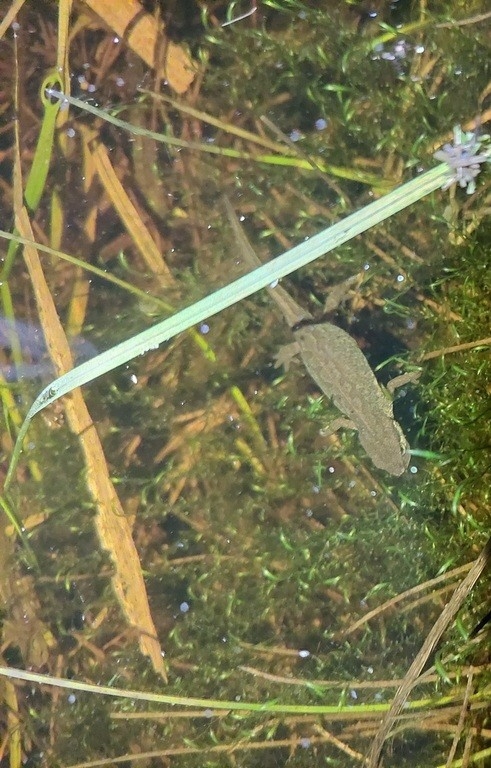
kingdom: Animalia
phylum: Chordata
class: Amphibia
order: Caudata
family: Salamandridae
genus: Lissotriton
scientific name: Lissotriton helveticus
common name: Palmate newt
